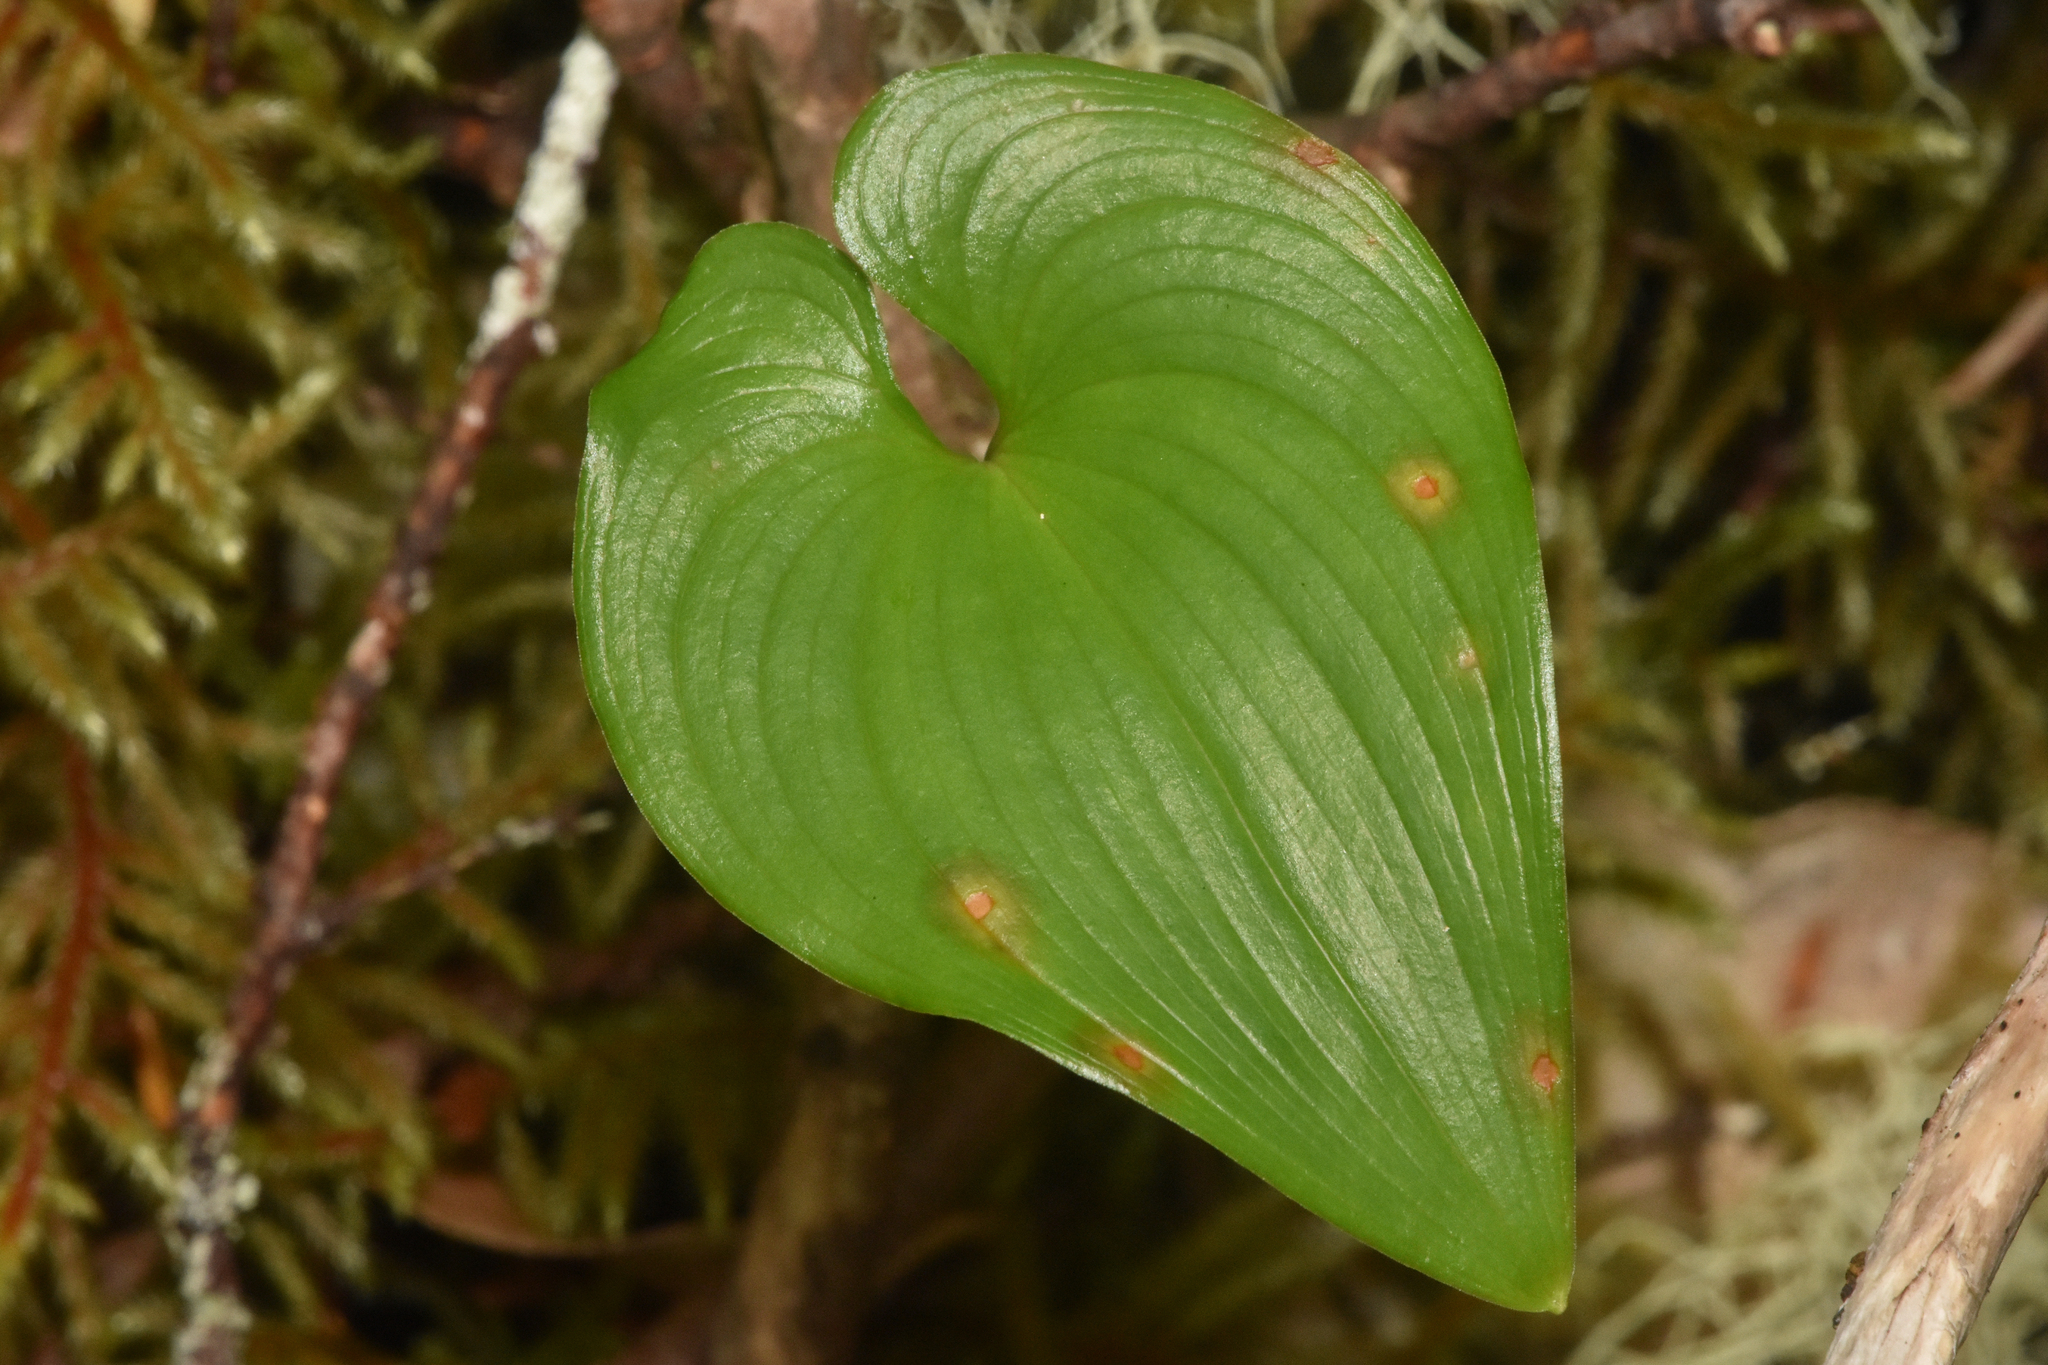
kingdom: Plantae
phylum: Tracheophyta
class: Liliopsida
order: Asparagales
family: Asparagaceae
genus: Maianthemum
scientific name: Maianthemum dilatatum
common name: False lily-of-the-valley
